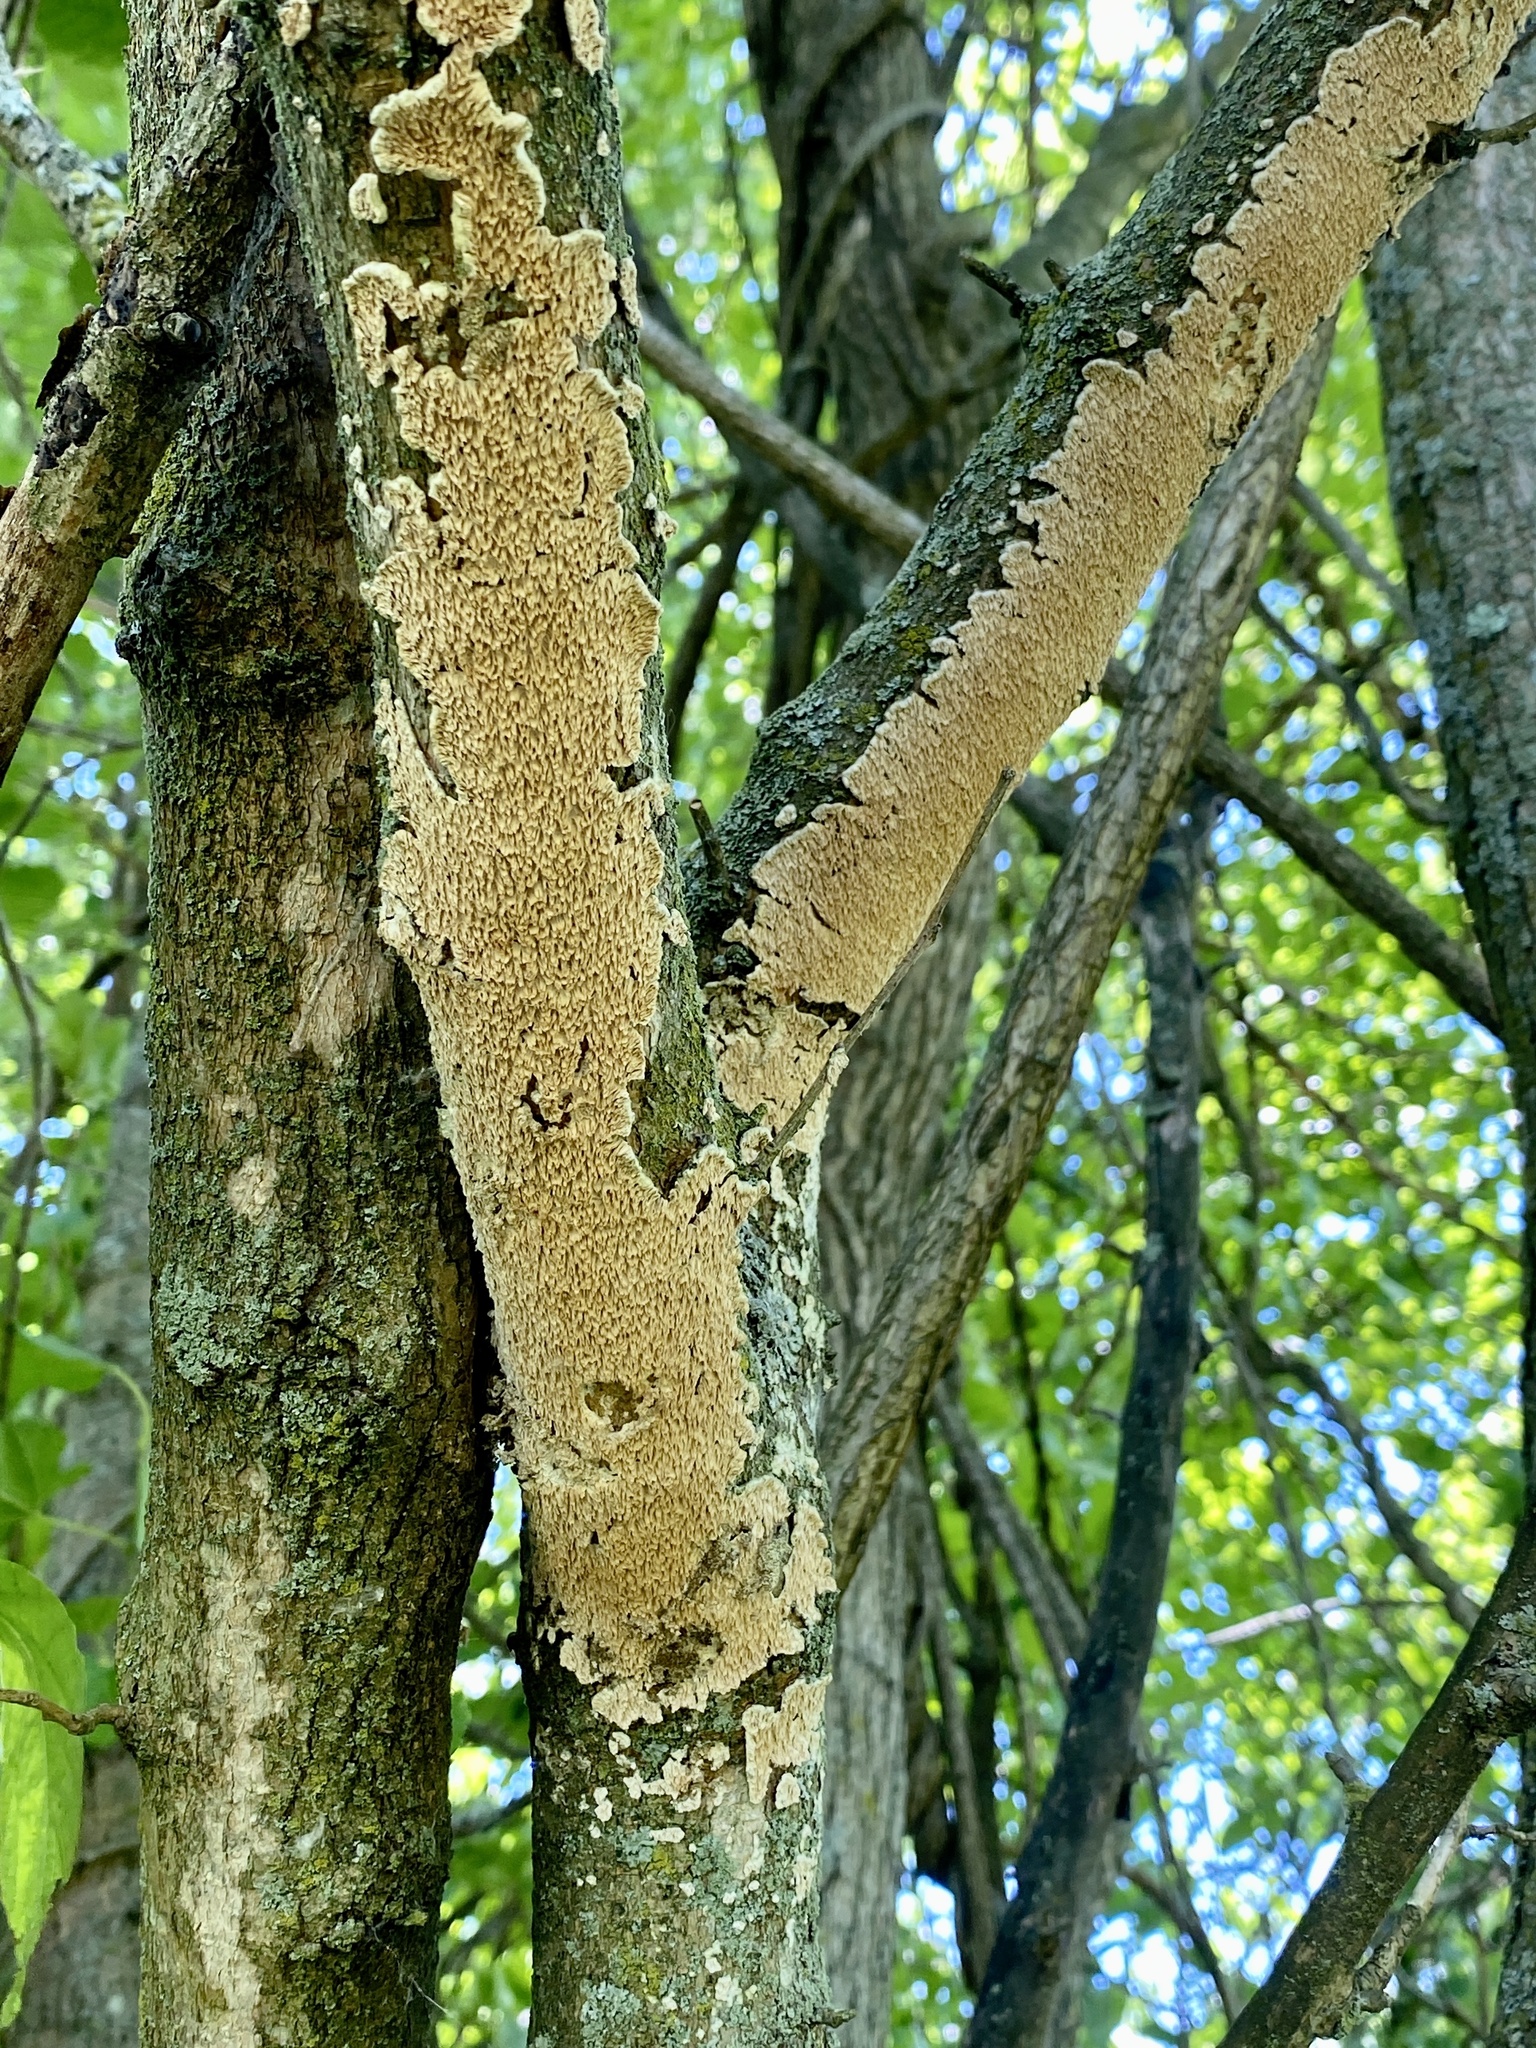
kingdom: Fungi
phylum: Basidiomycota
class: Agaricomycetes
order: Polyporales
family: Irpicaceae
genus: Irpex
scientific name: Irpex lacteus
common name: Milk-white toothed polypore
